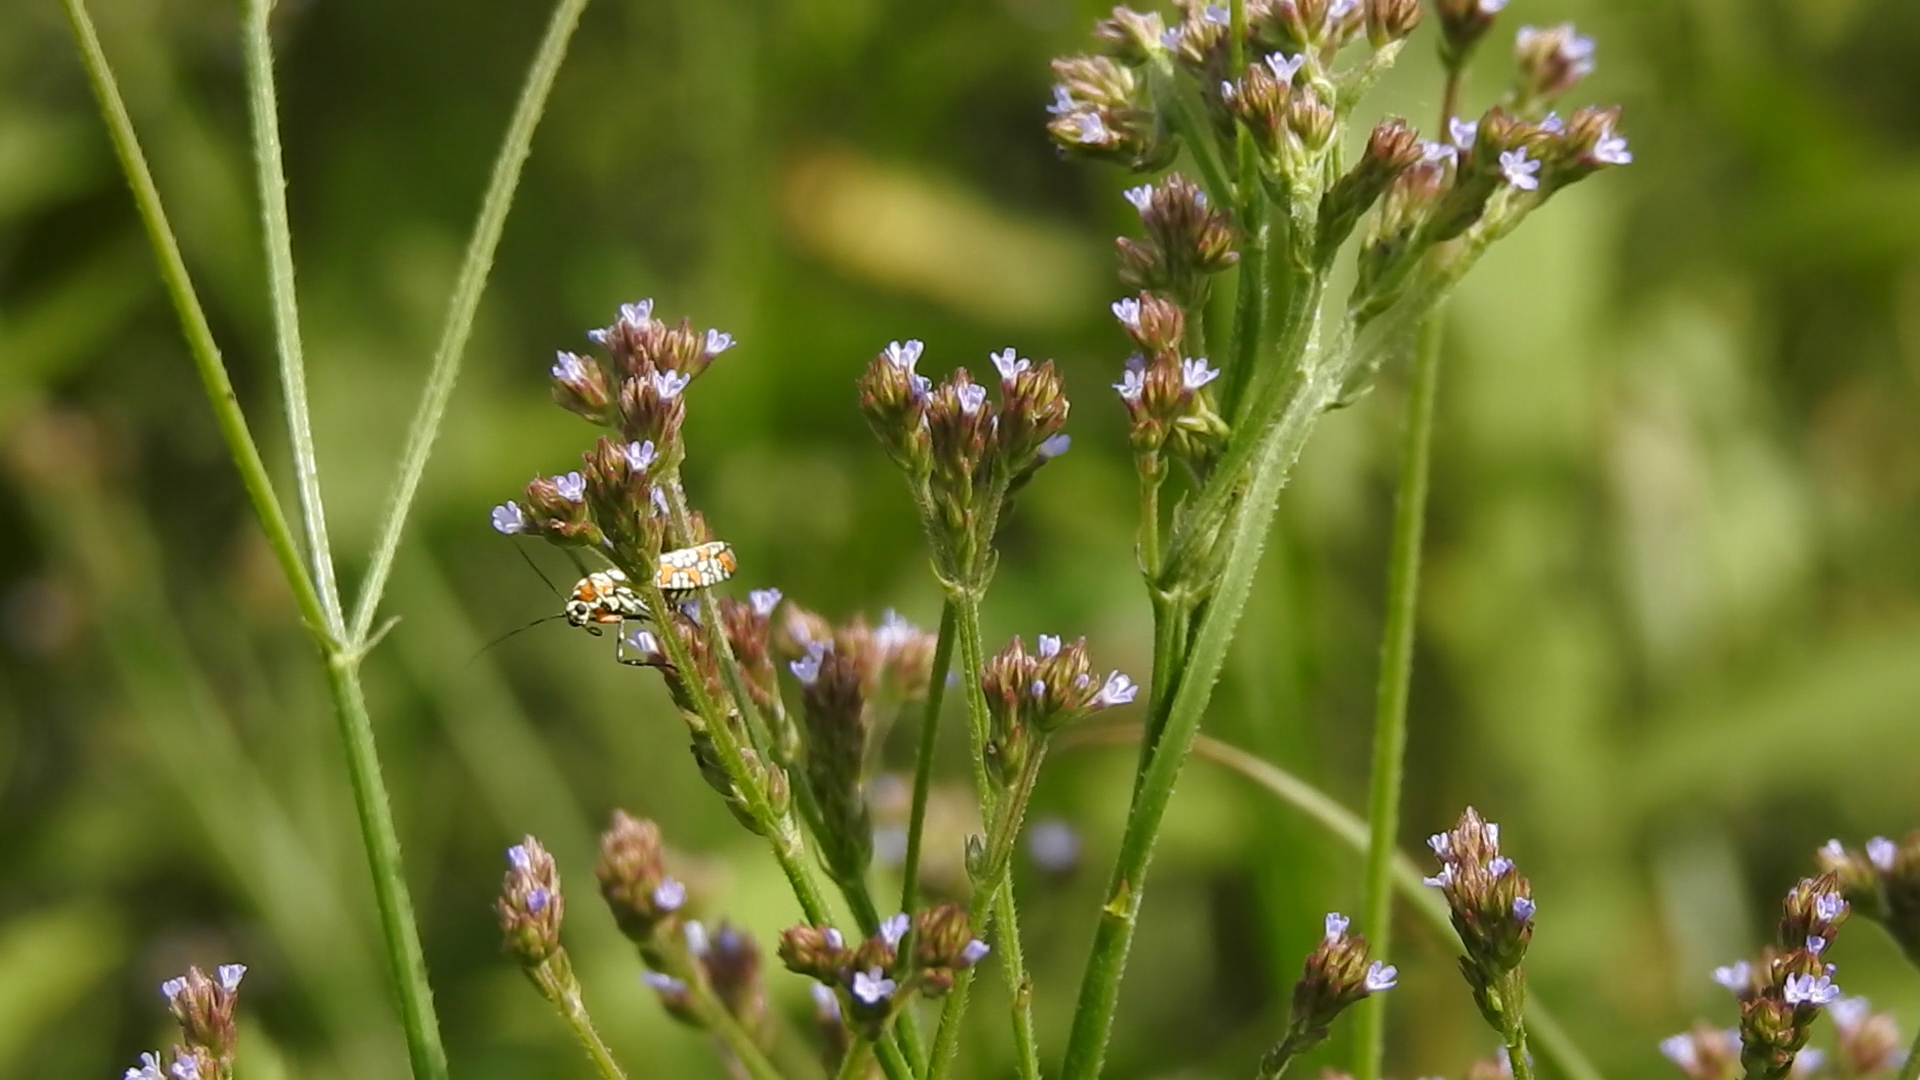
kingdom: Animalia
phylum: Arthropoda
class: Insecta
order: Lepidoptera
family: Attevidae
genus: Atteva
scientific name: Atteva punctella
